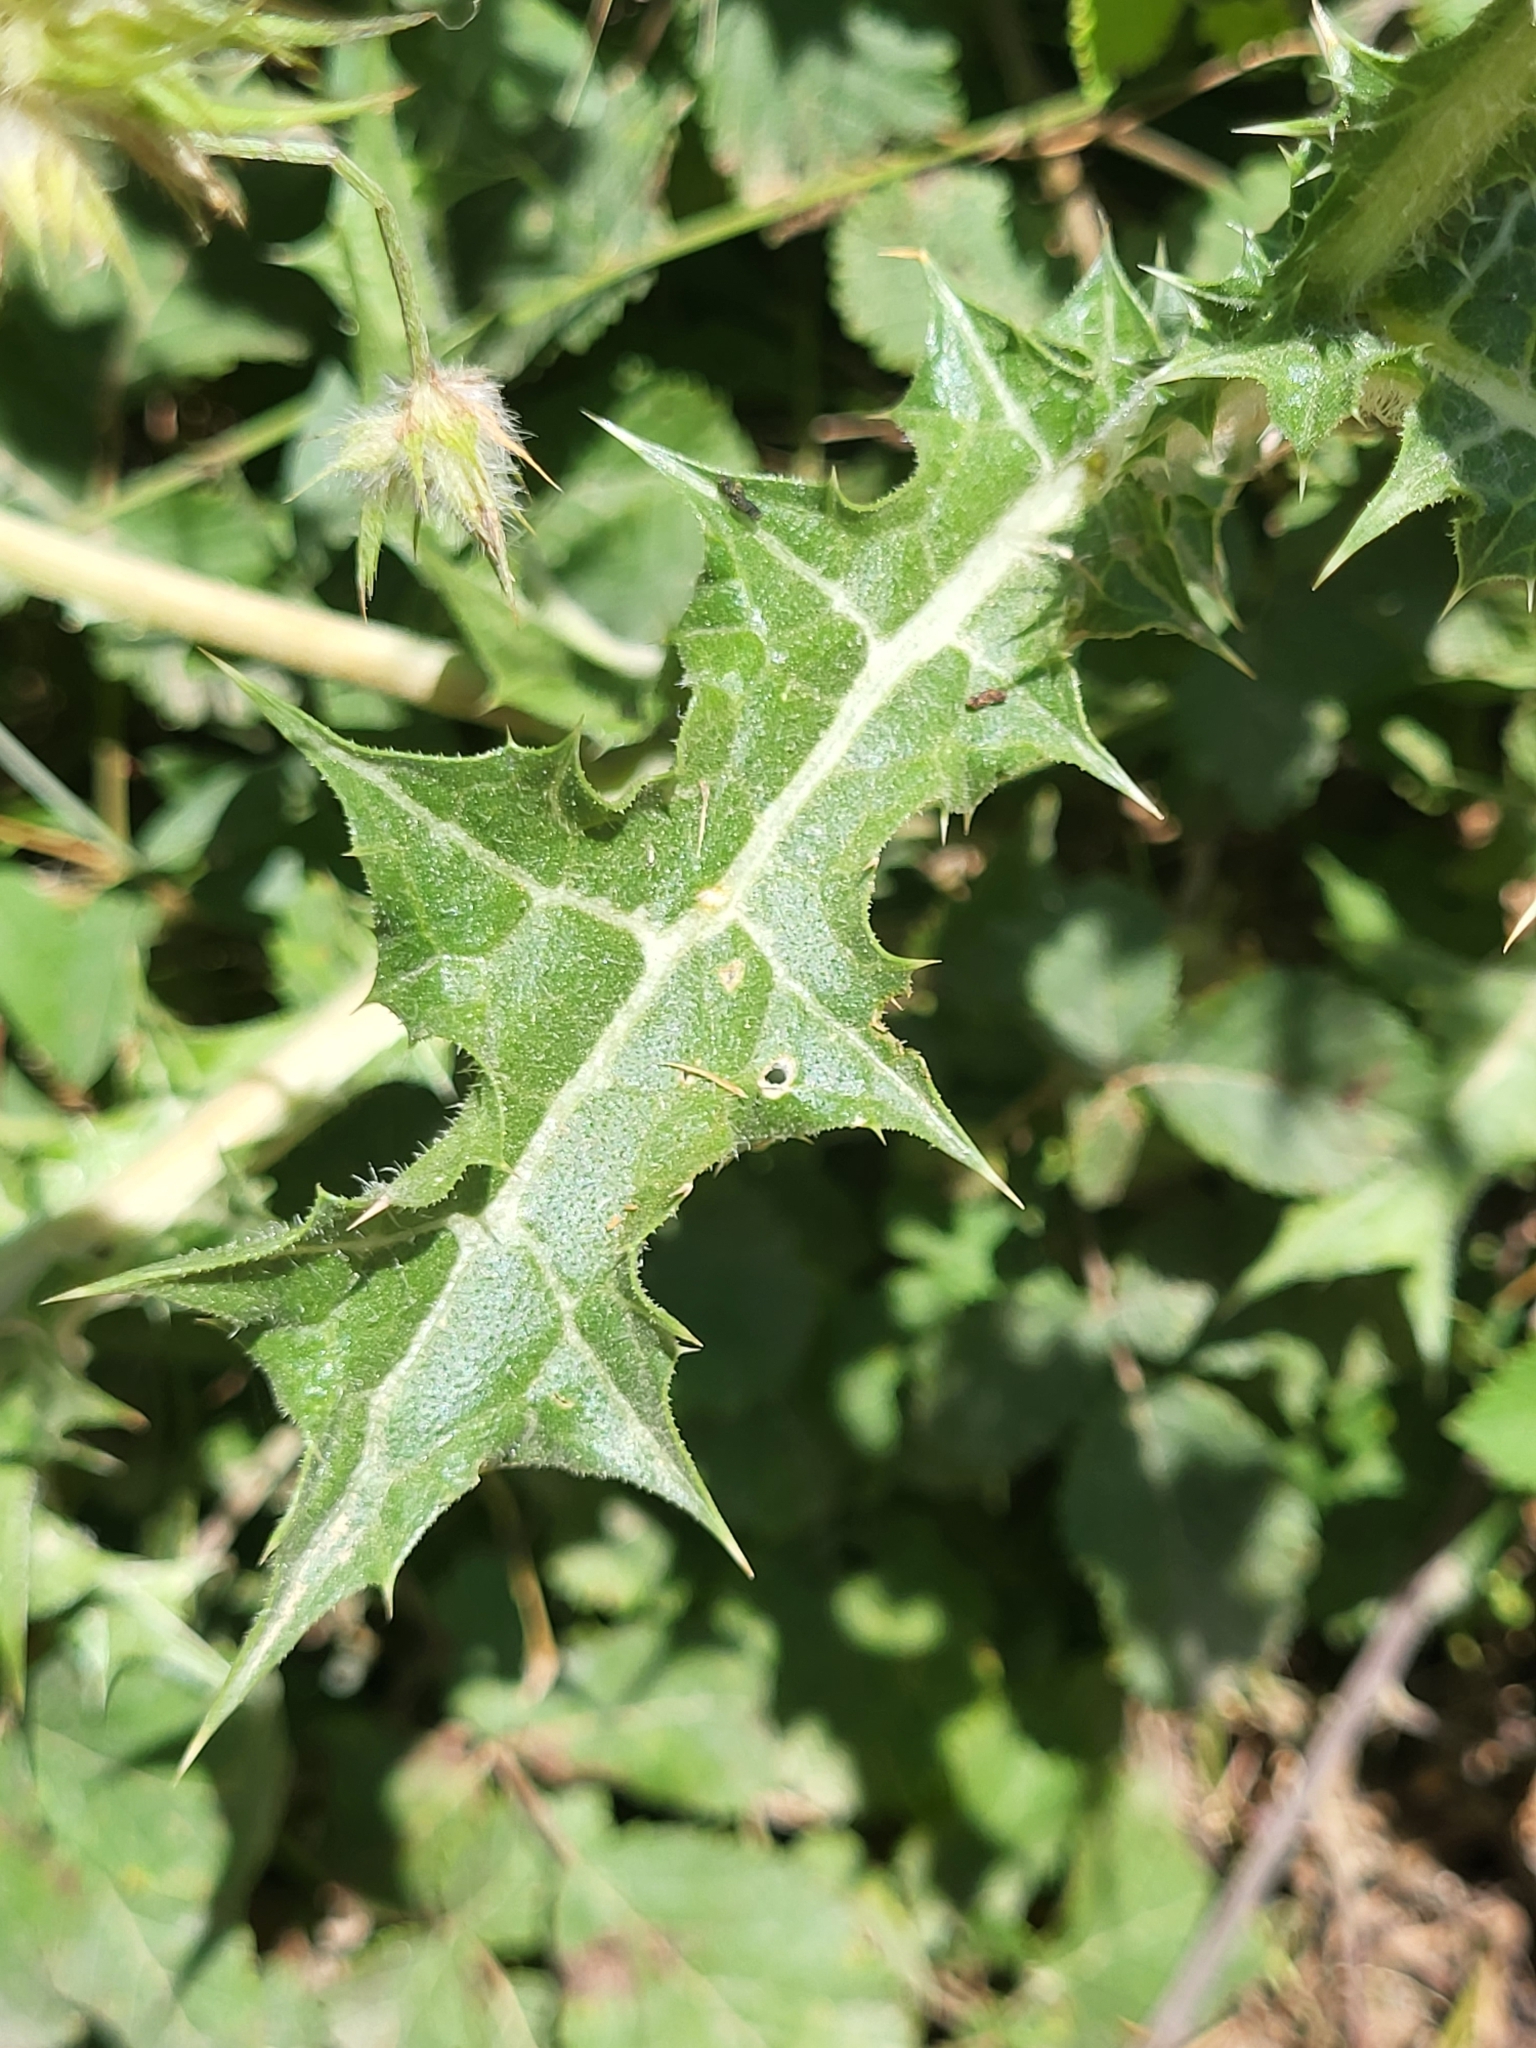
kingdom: Plantae
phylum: Tracheophyta
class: Magnoliopsida
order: Asterales
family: Asteraceae
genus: Scolymus
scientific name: Scolymus hispanicus
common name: Golden thistle
